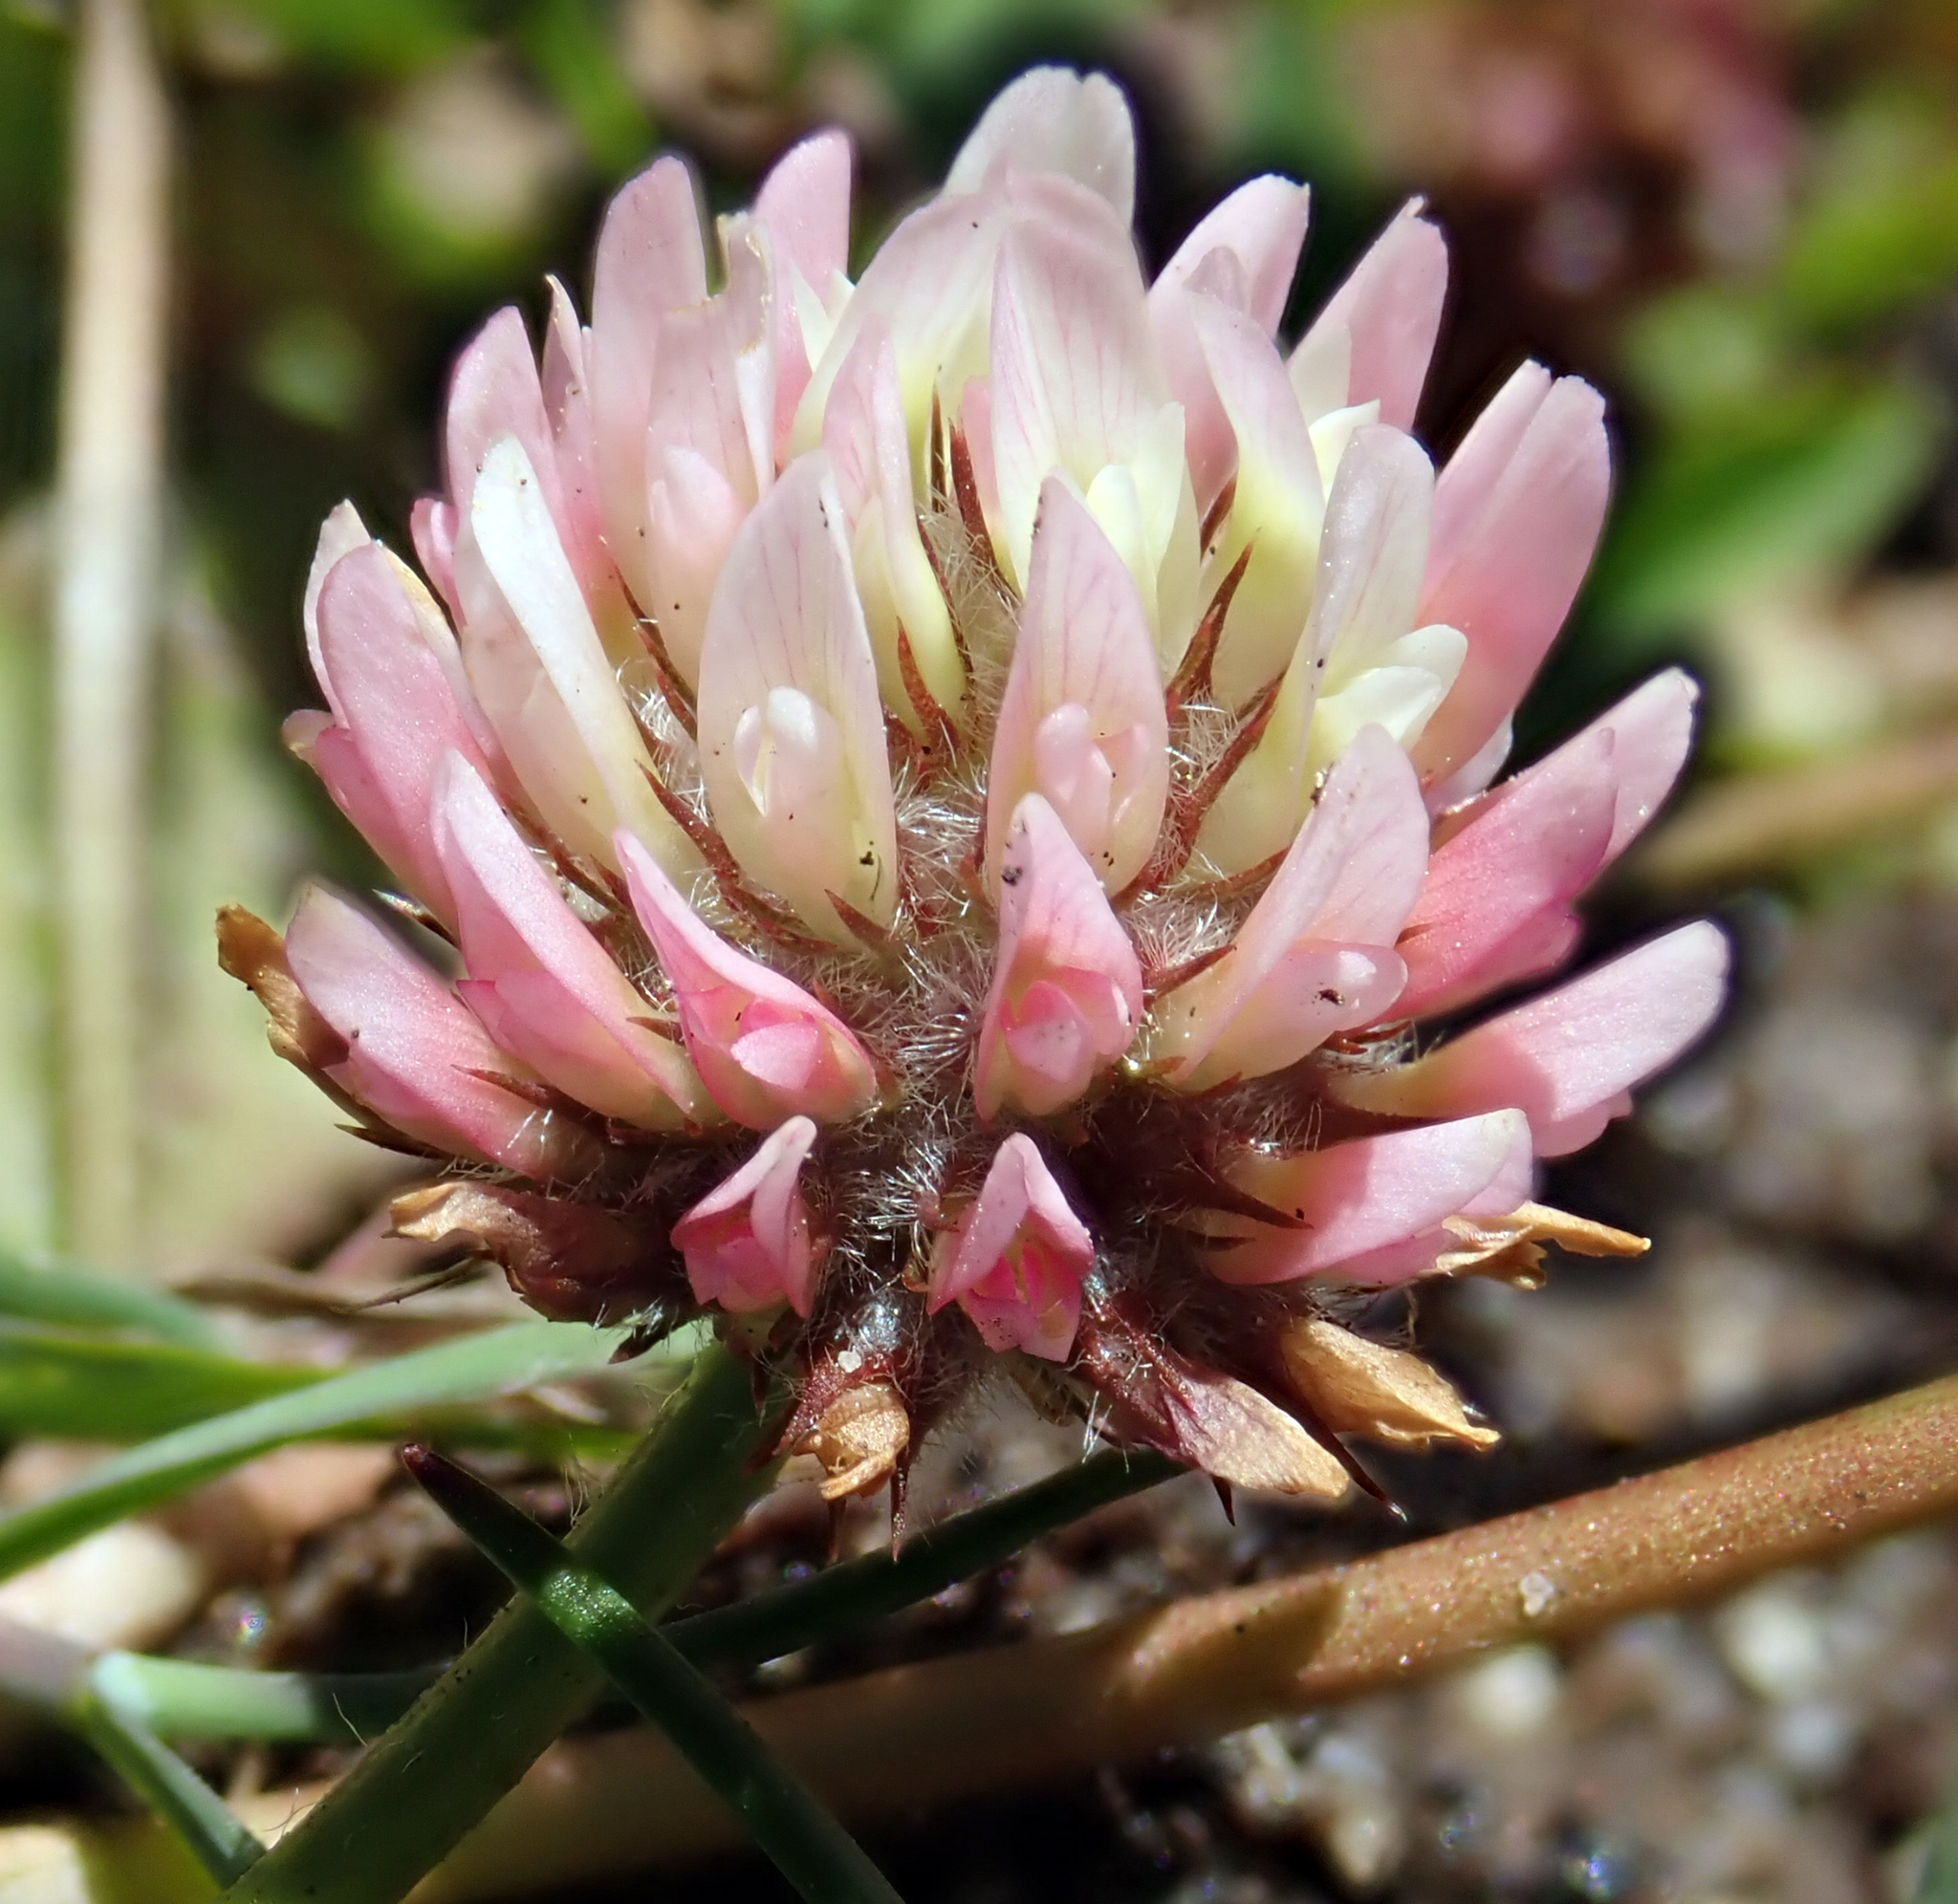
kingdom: Plantae
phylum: Tracheophyta
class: Magnoliopsida
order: Fabales
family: Fabaceae
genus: Trifolium
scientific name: Trifolium fragiferum
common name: Strawberry clover
